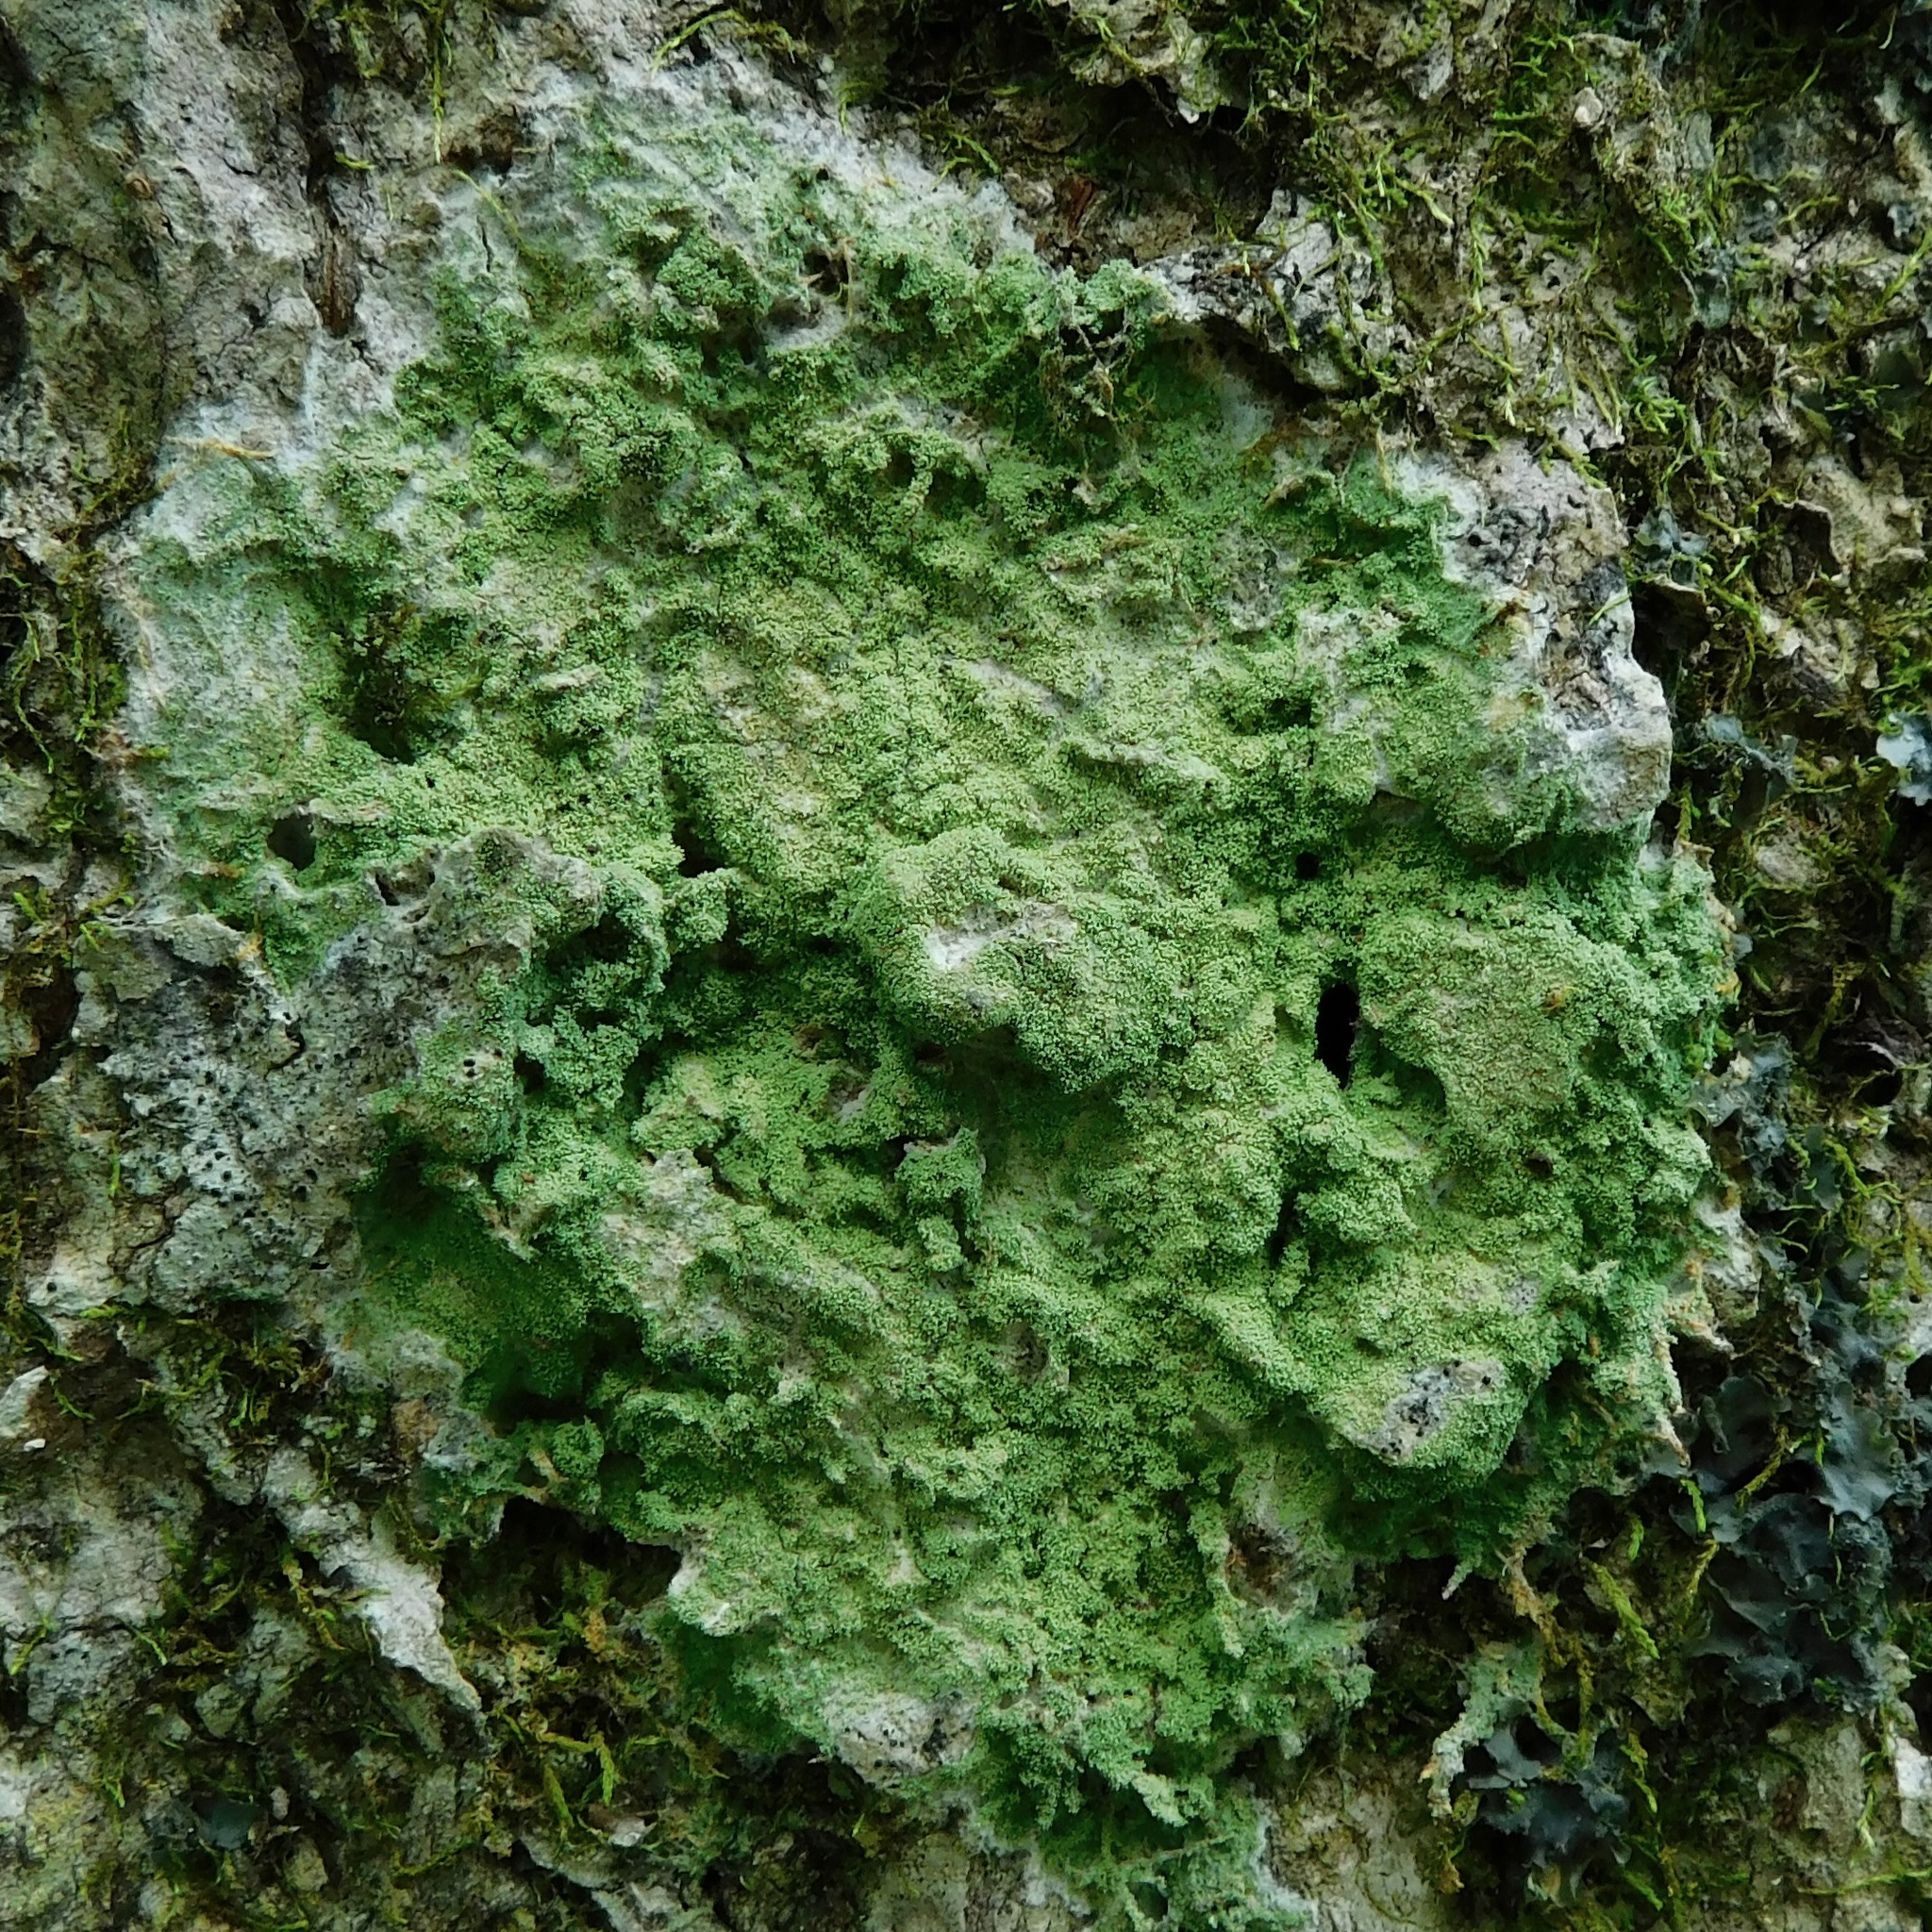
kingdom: Fungi
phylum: Ascomycota
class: Lecanoromycetes
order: Lecanorales
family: Ramalinaceae
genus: Phyllopsora
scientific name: Phyllopsora confusa
